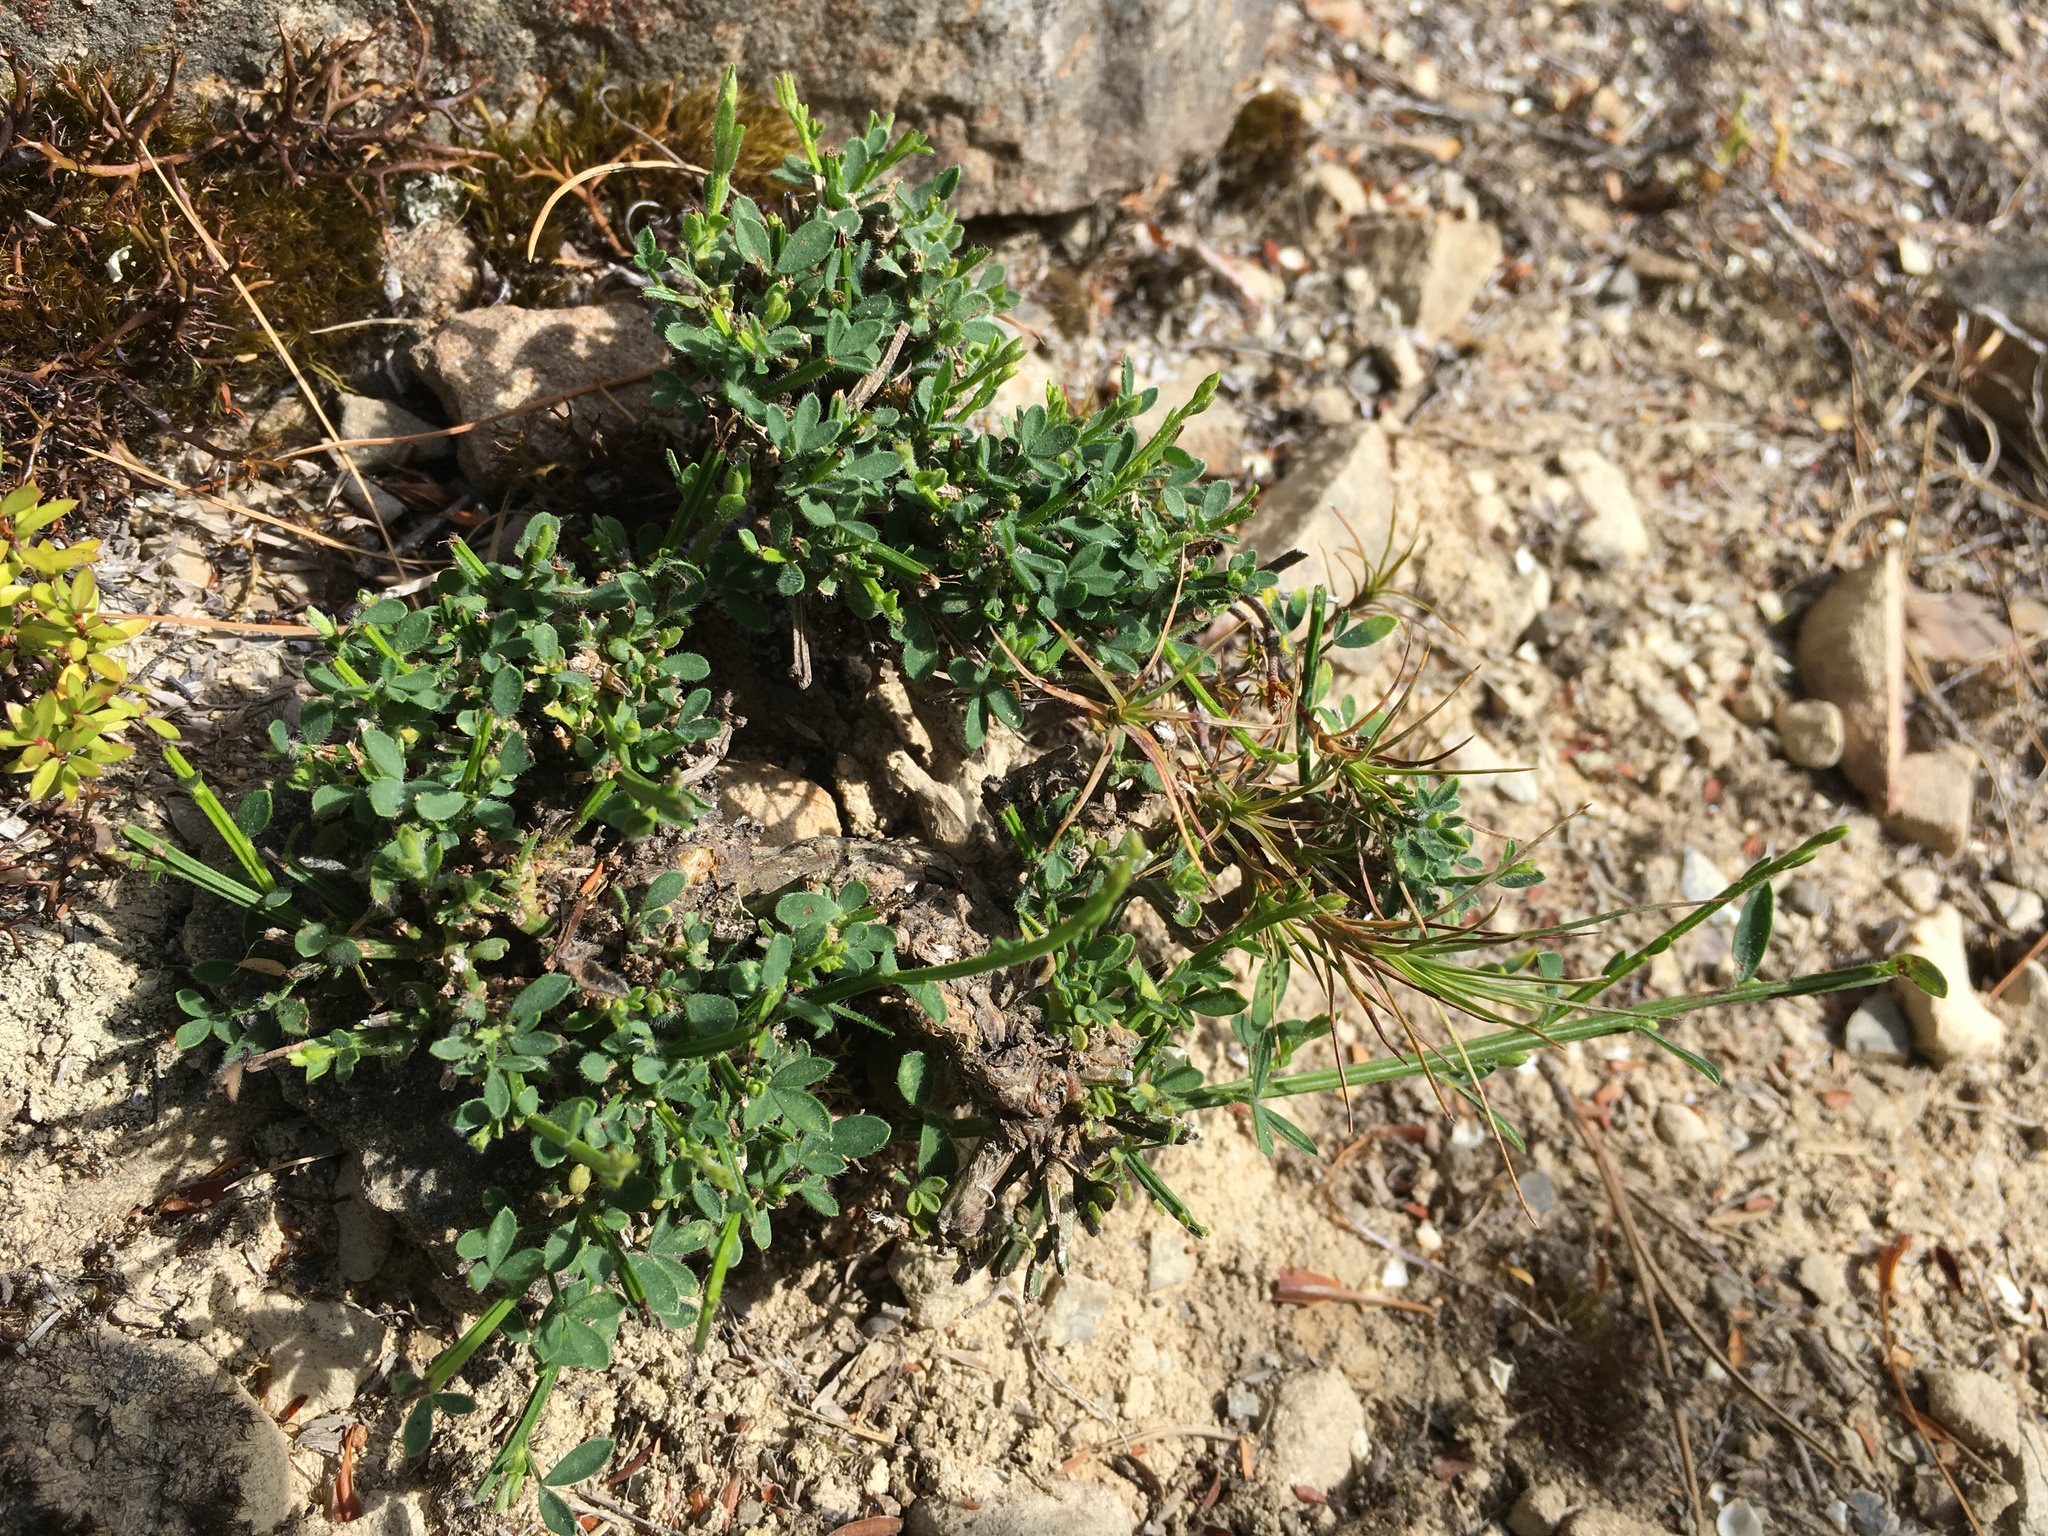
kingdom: Plantae
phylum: Tracheophyta
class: Magnoliopsida
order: Fabales
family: Fabaceae
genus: Cytisus
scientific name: Cytisus scoparius
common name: Scotch broom
